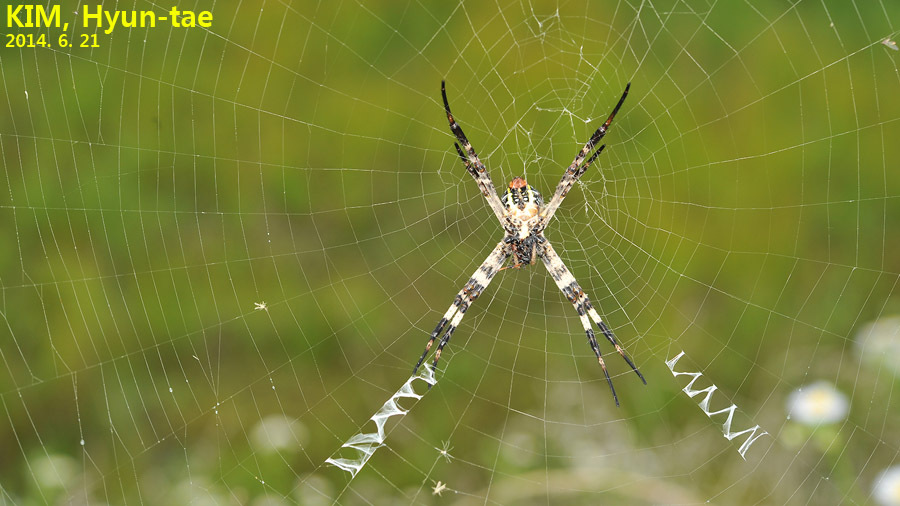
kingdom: Animalia
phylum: Arthropoda
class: Arachnida
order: Araneae
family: Araneidae
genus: Argiope
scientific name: Argiope amoena
